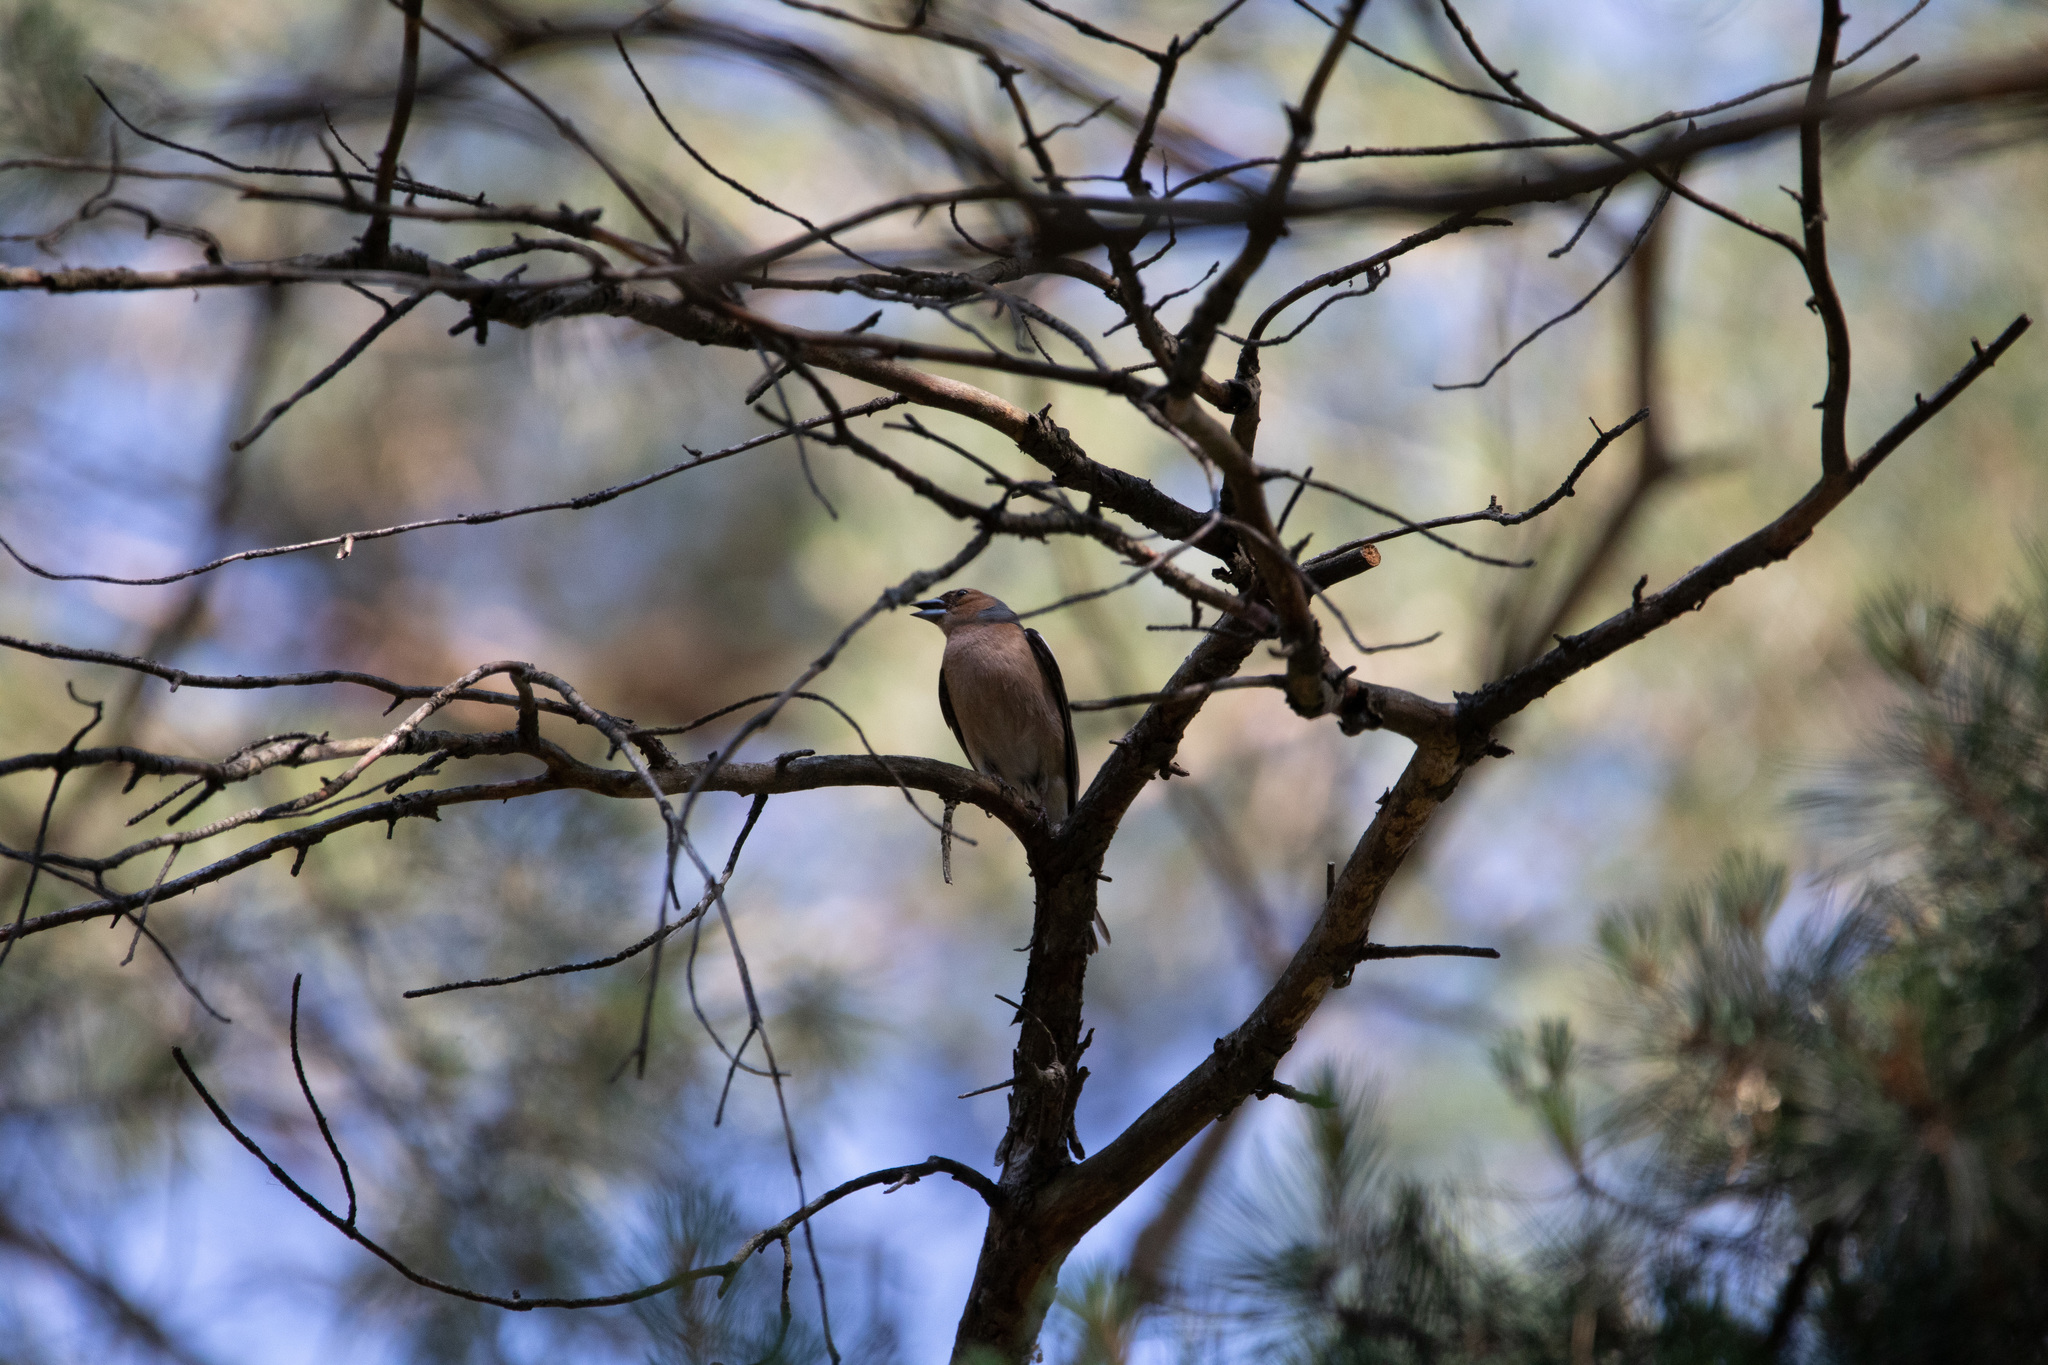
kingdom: Animalia
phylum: Chordata
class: Aves
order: Passeriformes
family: Fringillidae
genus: Fringilla
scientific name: Fringilla coelebs
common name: Common chaffinch
